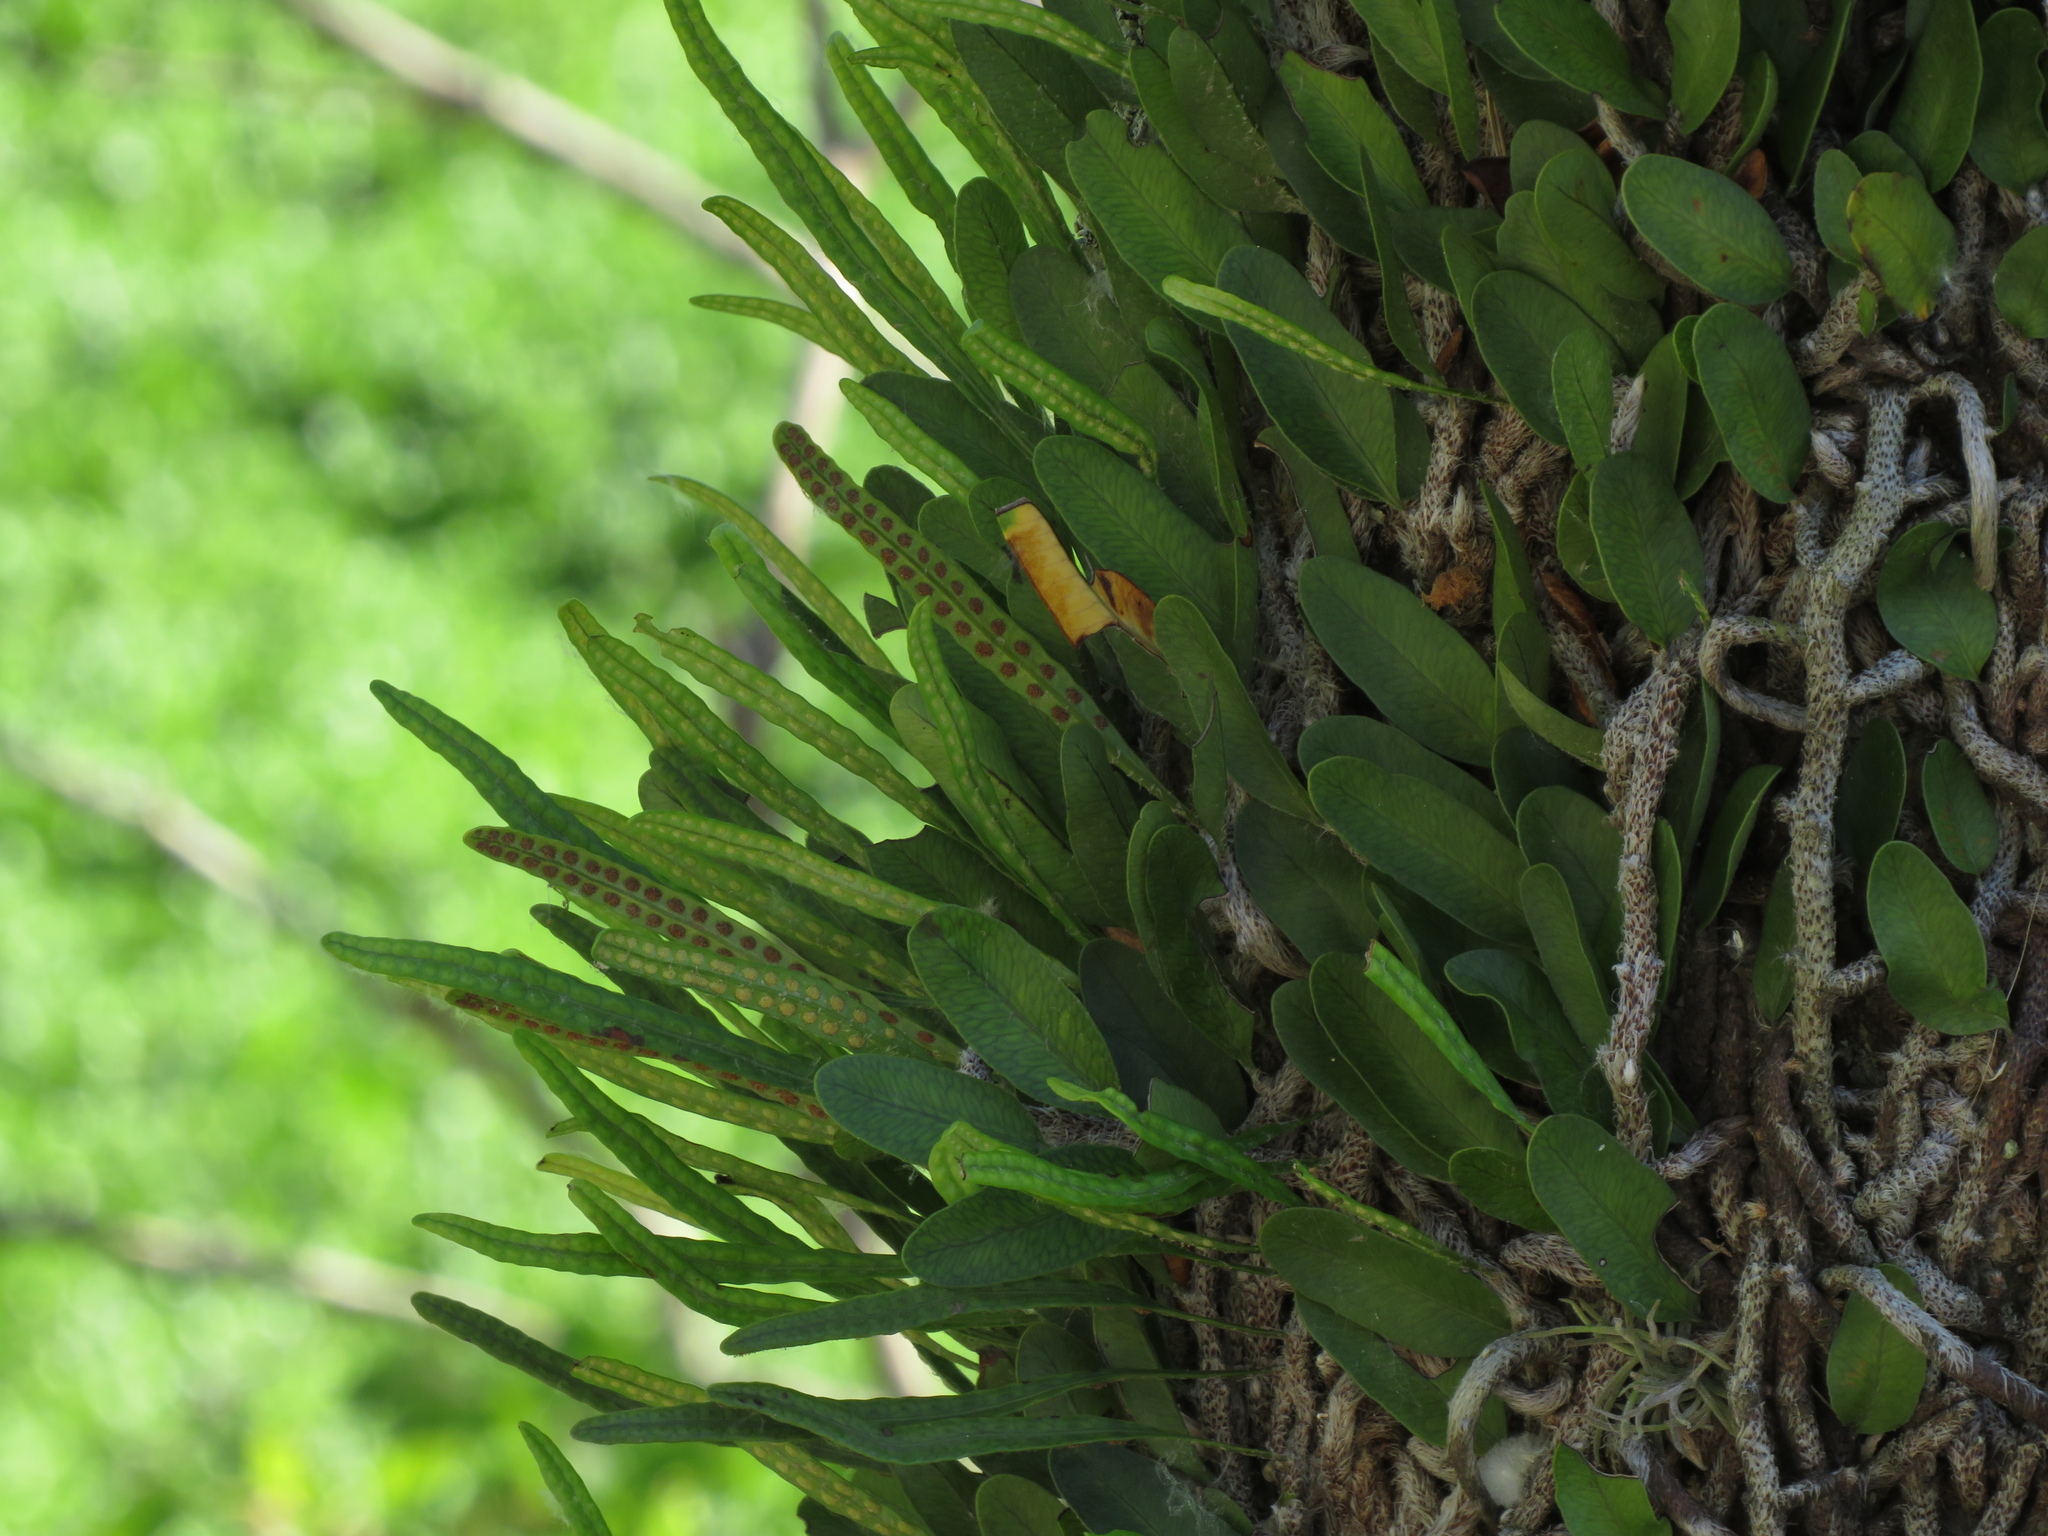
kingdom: Plantae
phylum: Tracheophyta
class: Polypodiopsida
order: Polypodiales
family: Polypodiaceae
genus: Microgramma
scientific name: Microgramma mortoniana
